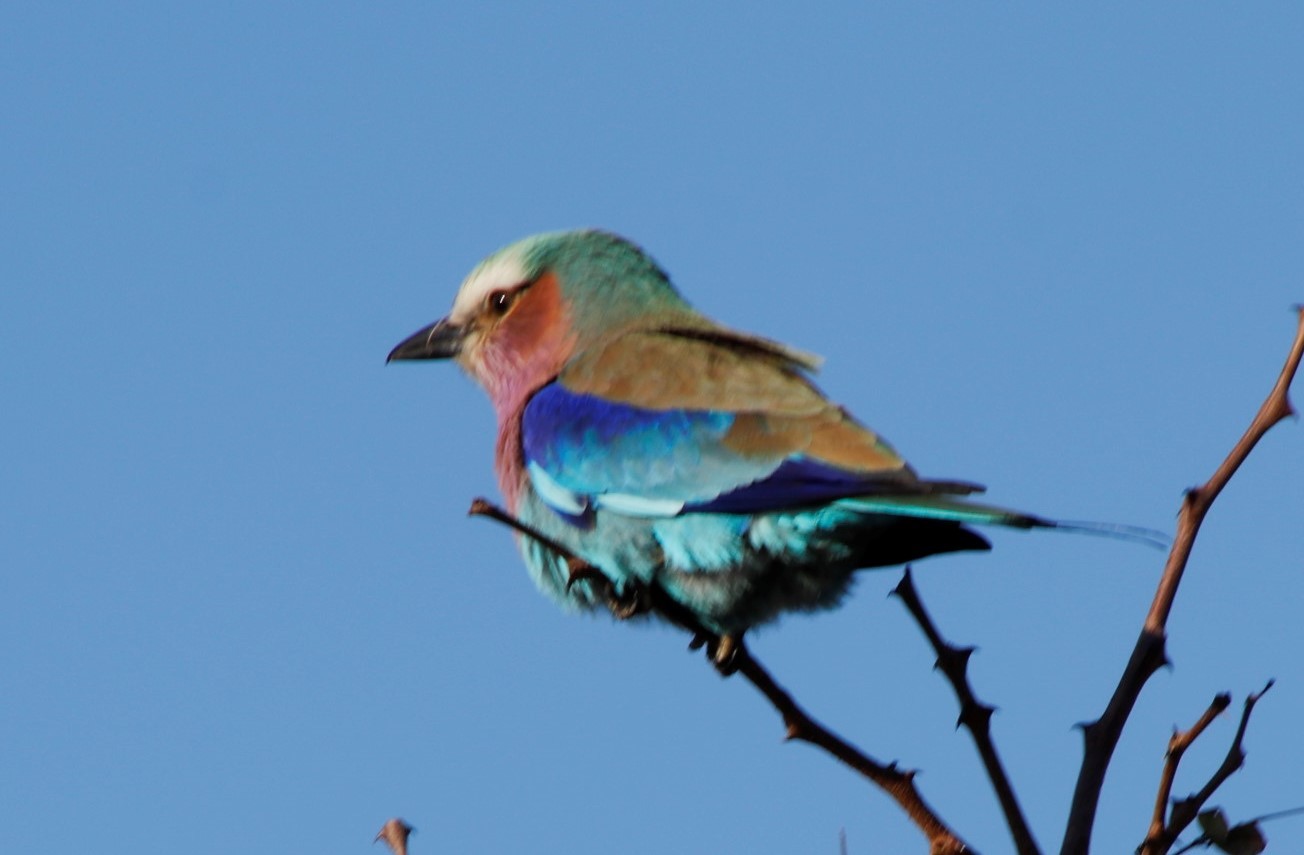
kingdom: Animalia
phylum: Chordata
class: Aves
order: Coraciiformes
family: Coraciidae
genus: Coracias
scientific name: Coracias caudatus
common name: Lilac-breasted roller
